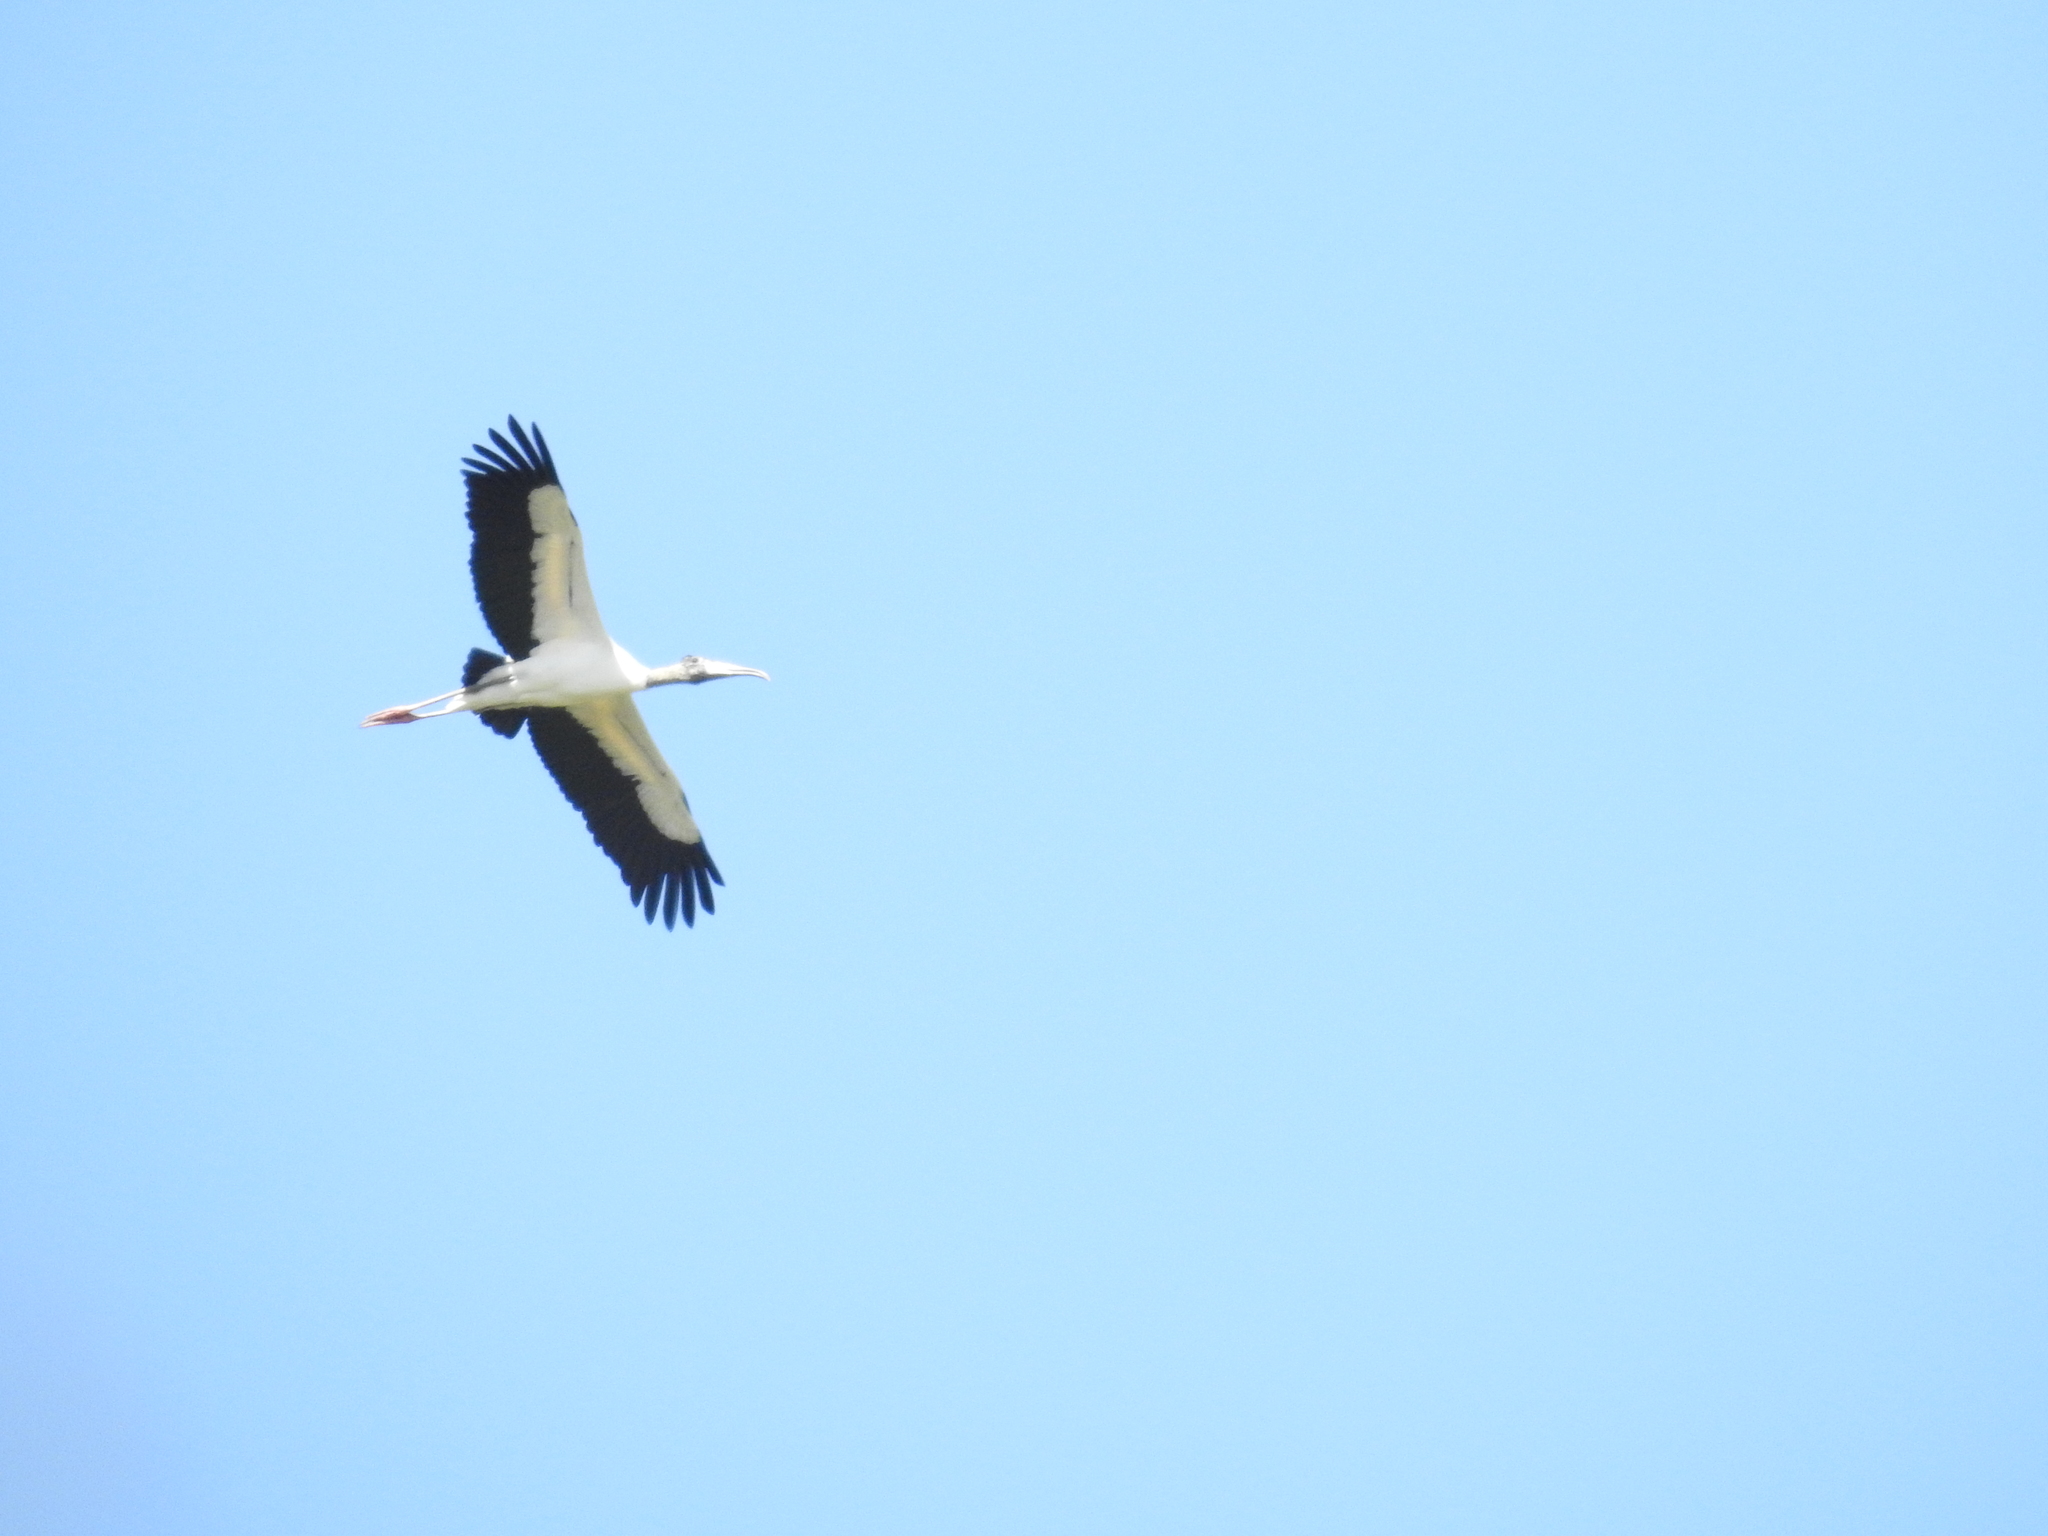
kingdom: Animalia
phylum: Chordata
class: Aves
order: Ciconiiformes
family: Ciconiidae
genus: Mycteria
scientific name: Mycteria americana
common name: Wood stork
